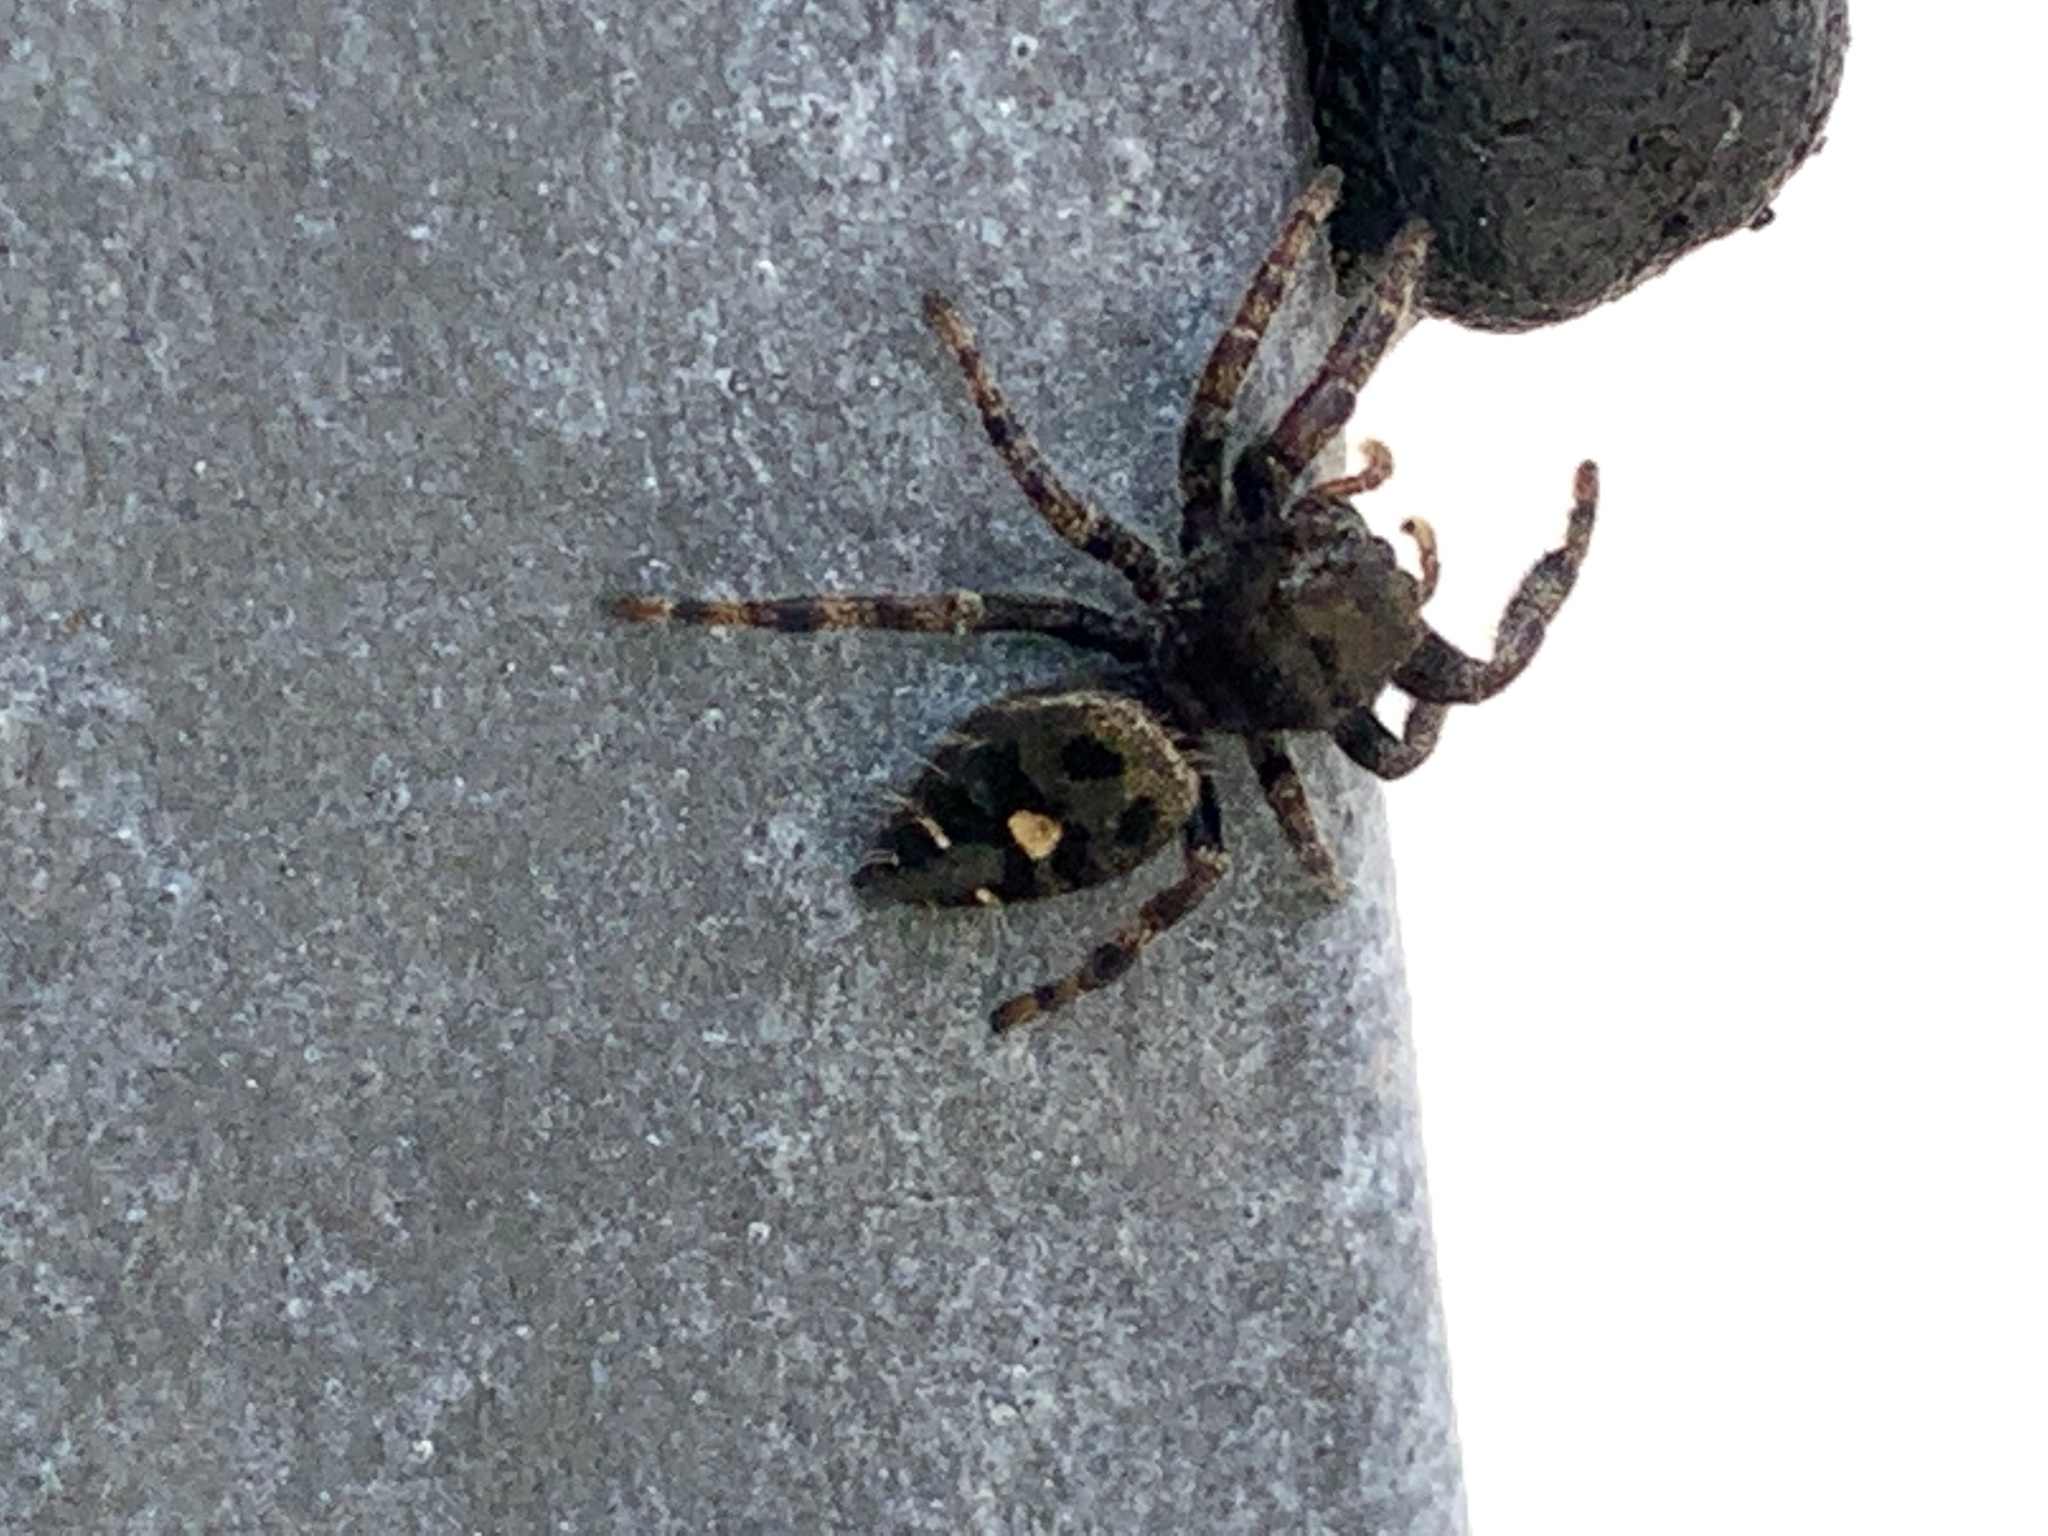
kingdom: Animalia
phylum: Arthropoda
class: Arachnida
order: Araneae
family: Salticidae
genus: Phidippus
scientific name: Phidippus audax
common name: Bold jumper
